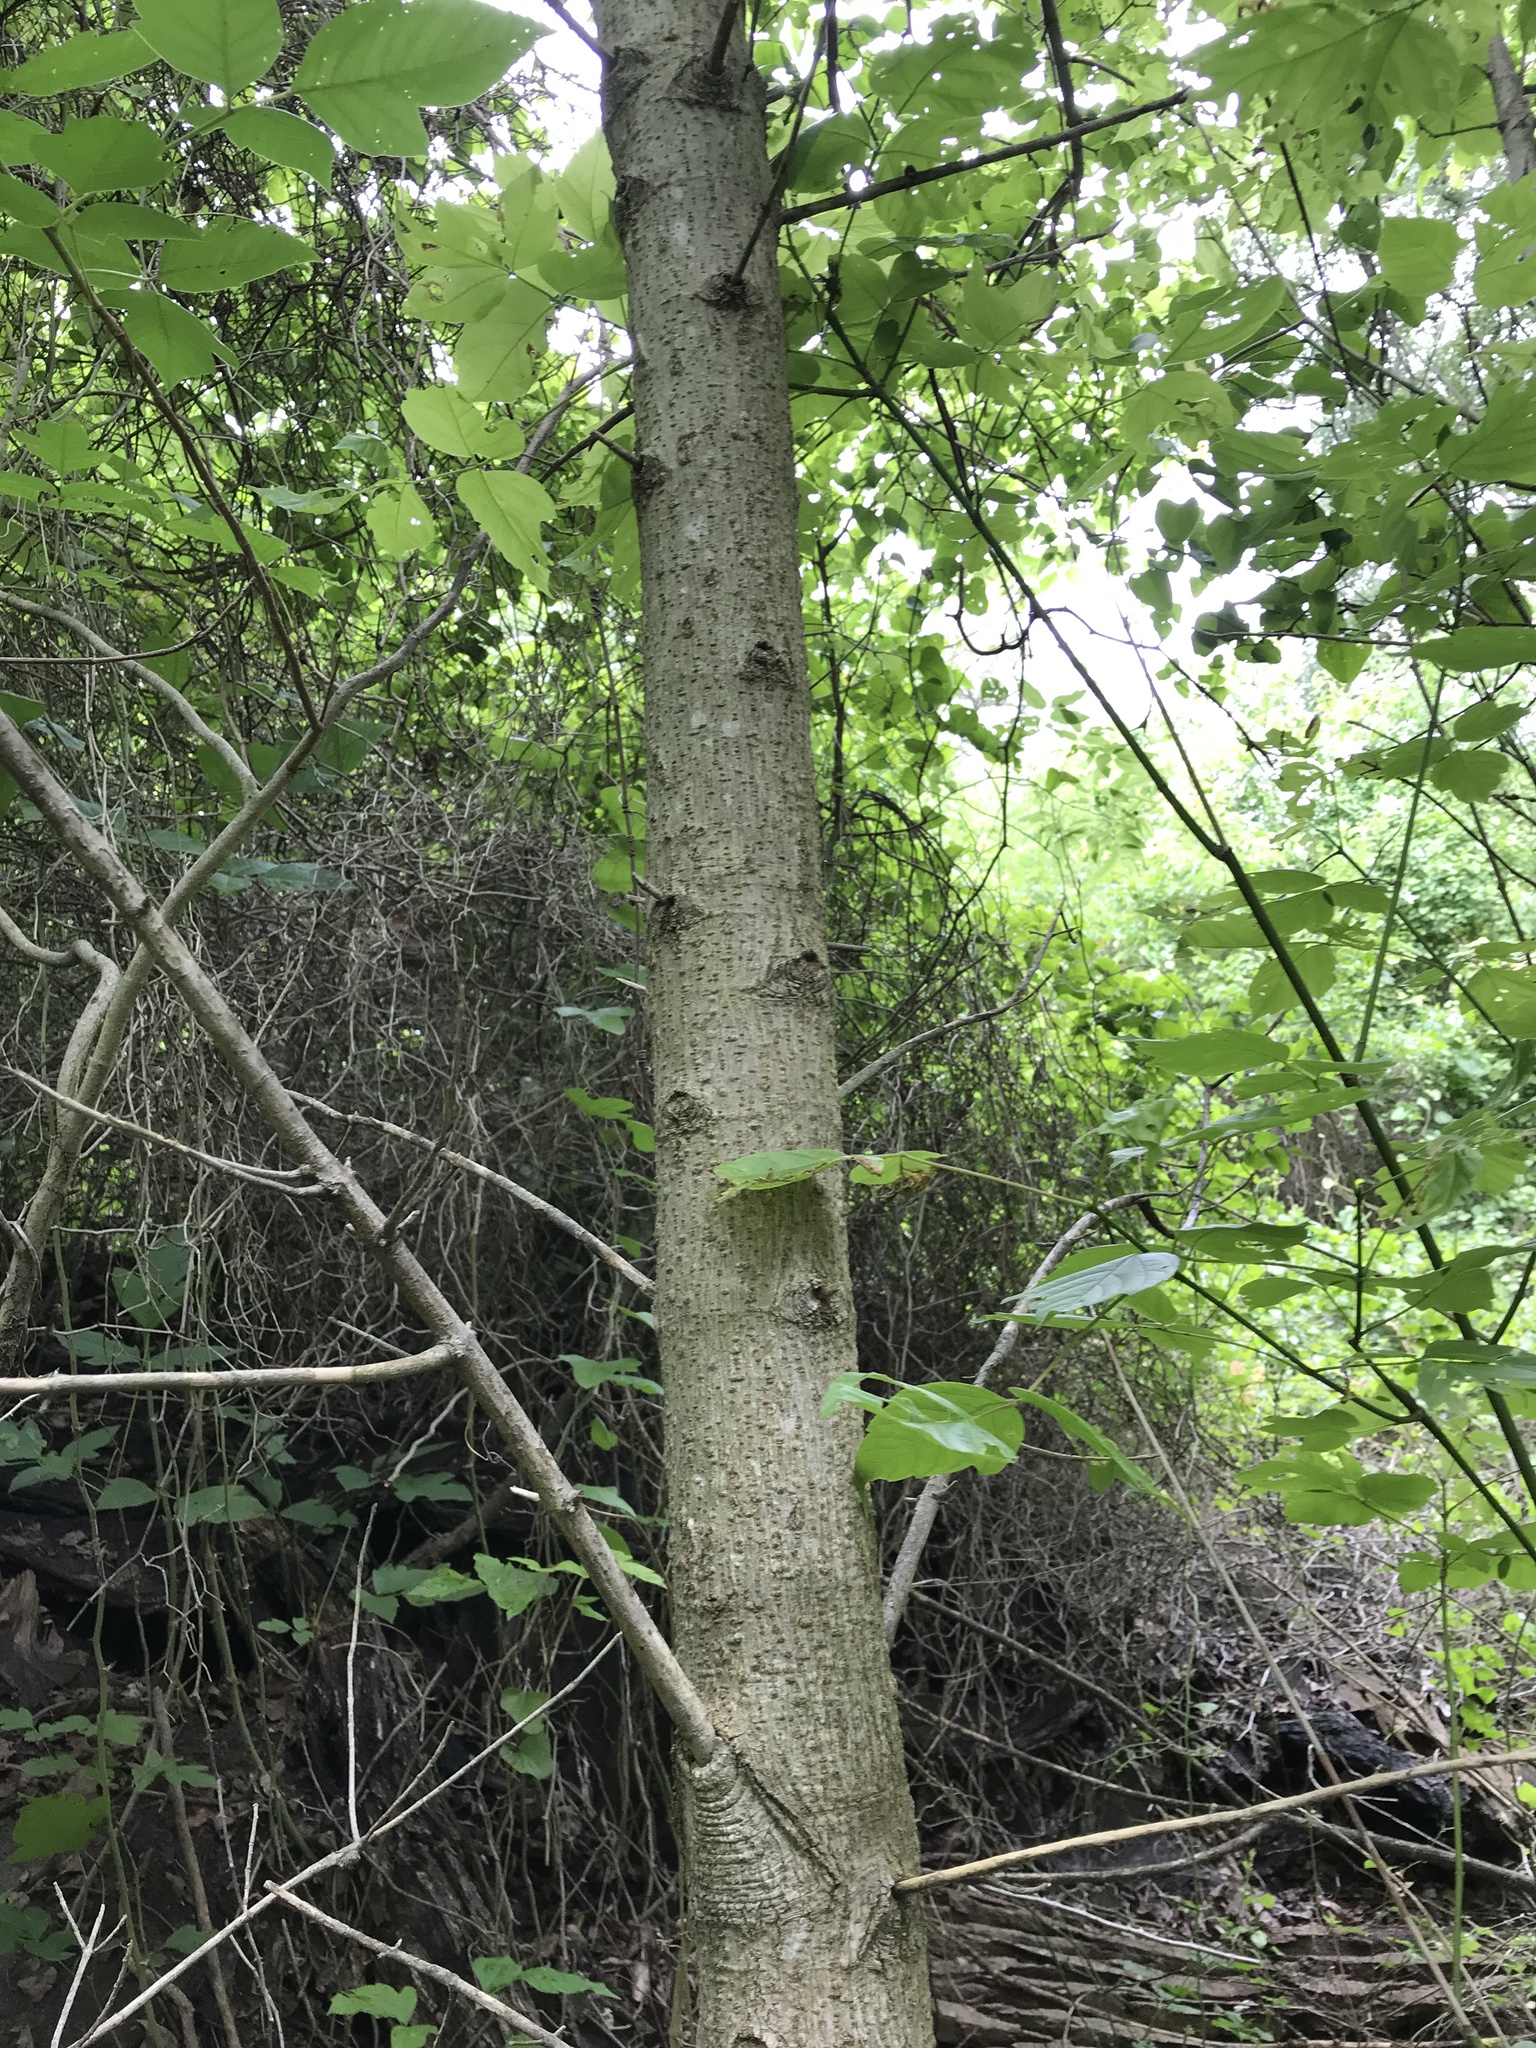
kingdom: Plantae
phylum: Tracheophyta
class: Magnoliopsida
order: Sapindales
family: Sapindaceae
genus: Acer
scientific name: Acer negundo
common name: Ashleaf maple
